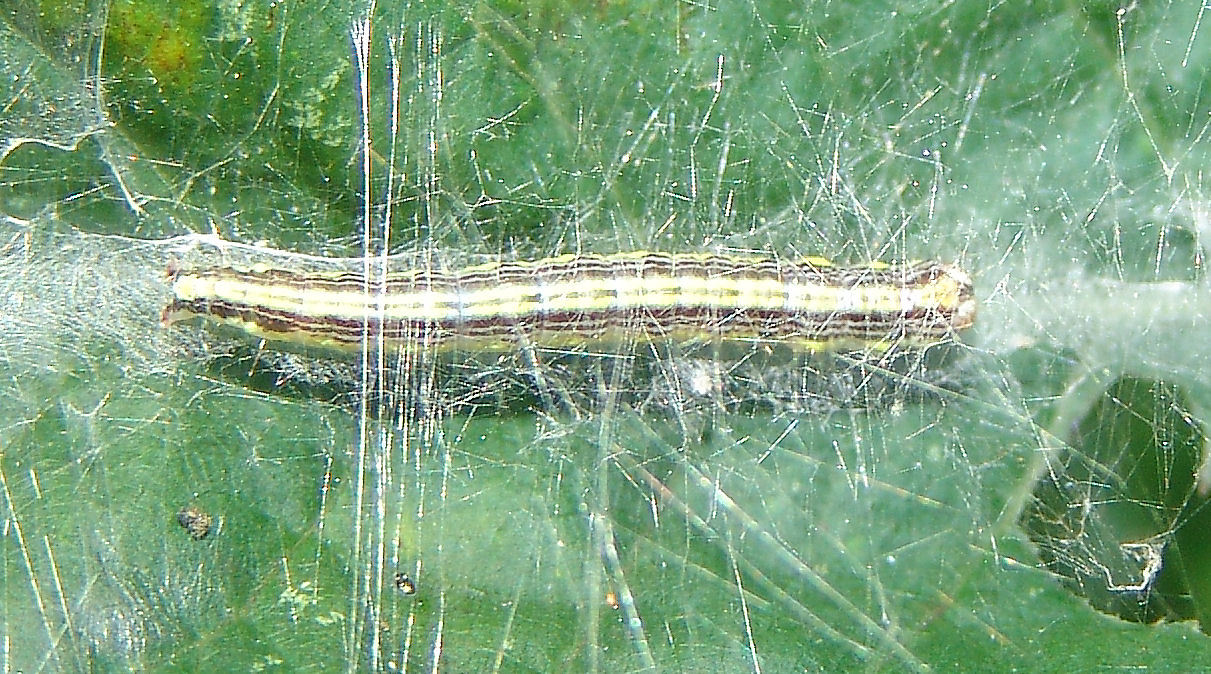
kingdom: Animalia
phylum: Arthropoda
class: Insecta
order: Lepidoptera
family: Pyralidae
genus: Epipaschia
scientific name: Epipaschia superatalis
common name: Dimorphic macalla moth
